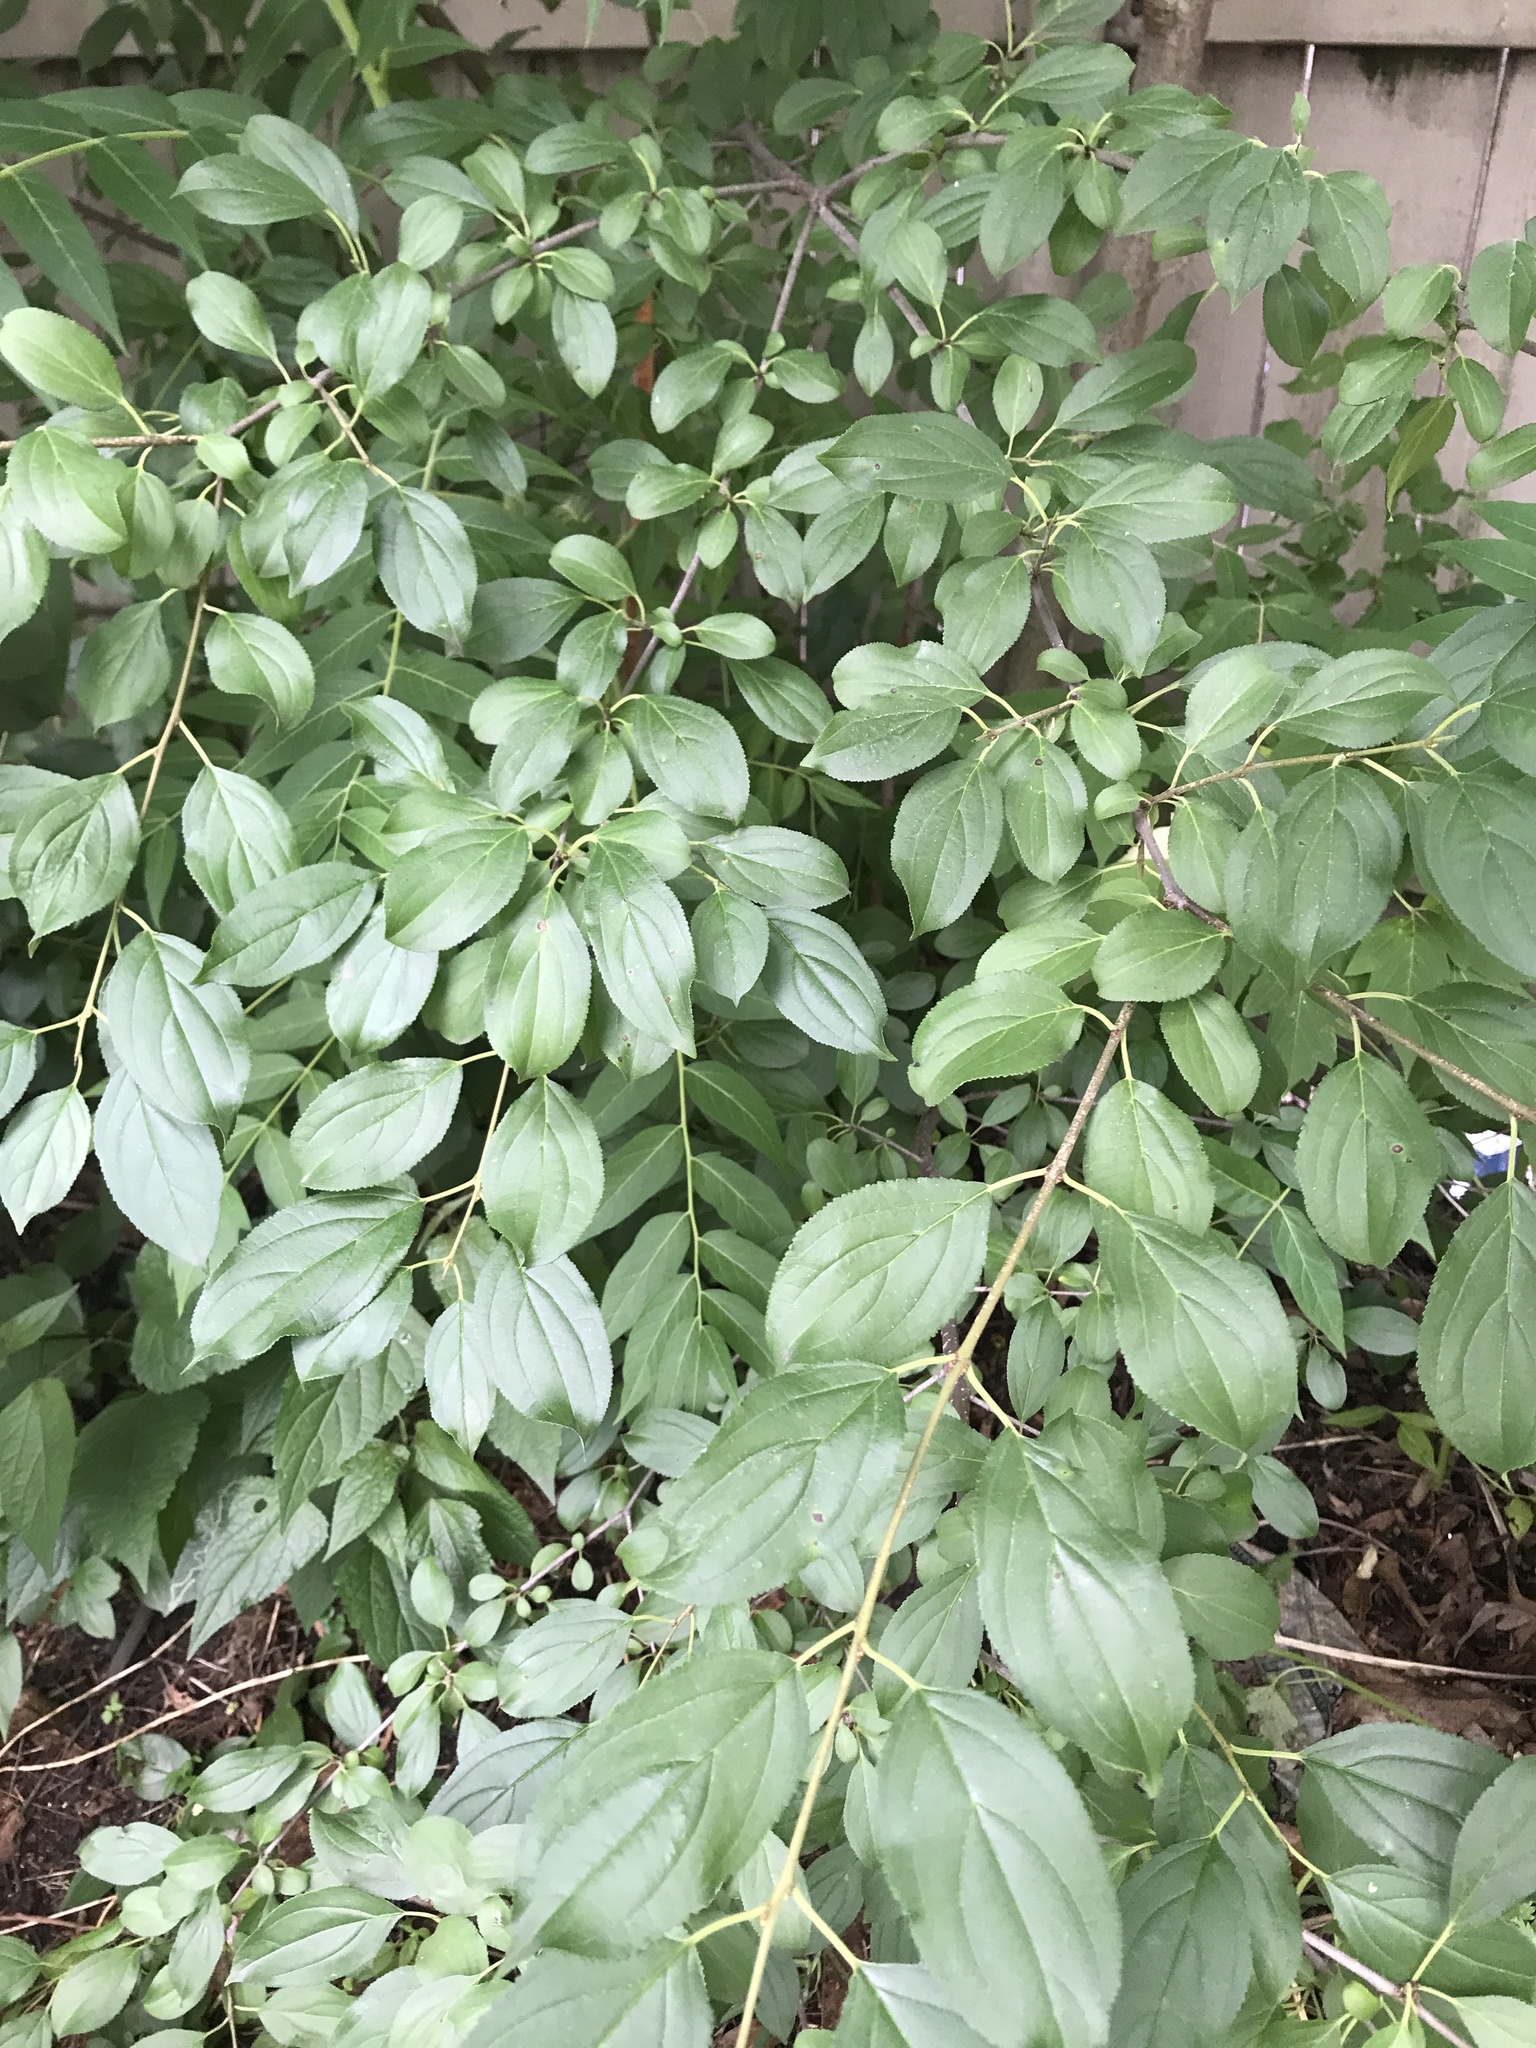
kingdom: Plantae
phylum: Tracheophyta
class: Magnoliopsida
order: Rosales
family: Rhamnaceae
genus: Rhamnus
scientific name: Rhamnus cathartica
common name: Common buckthorn
